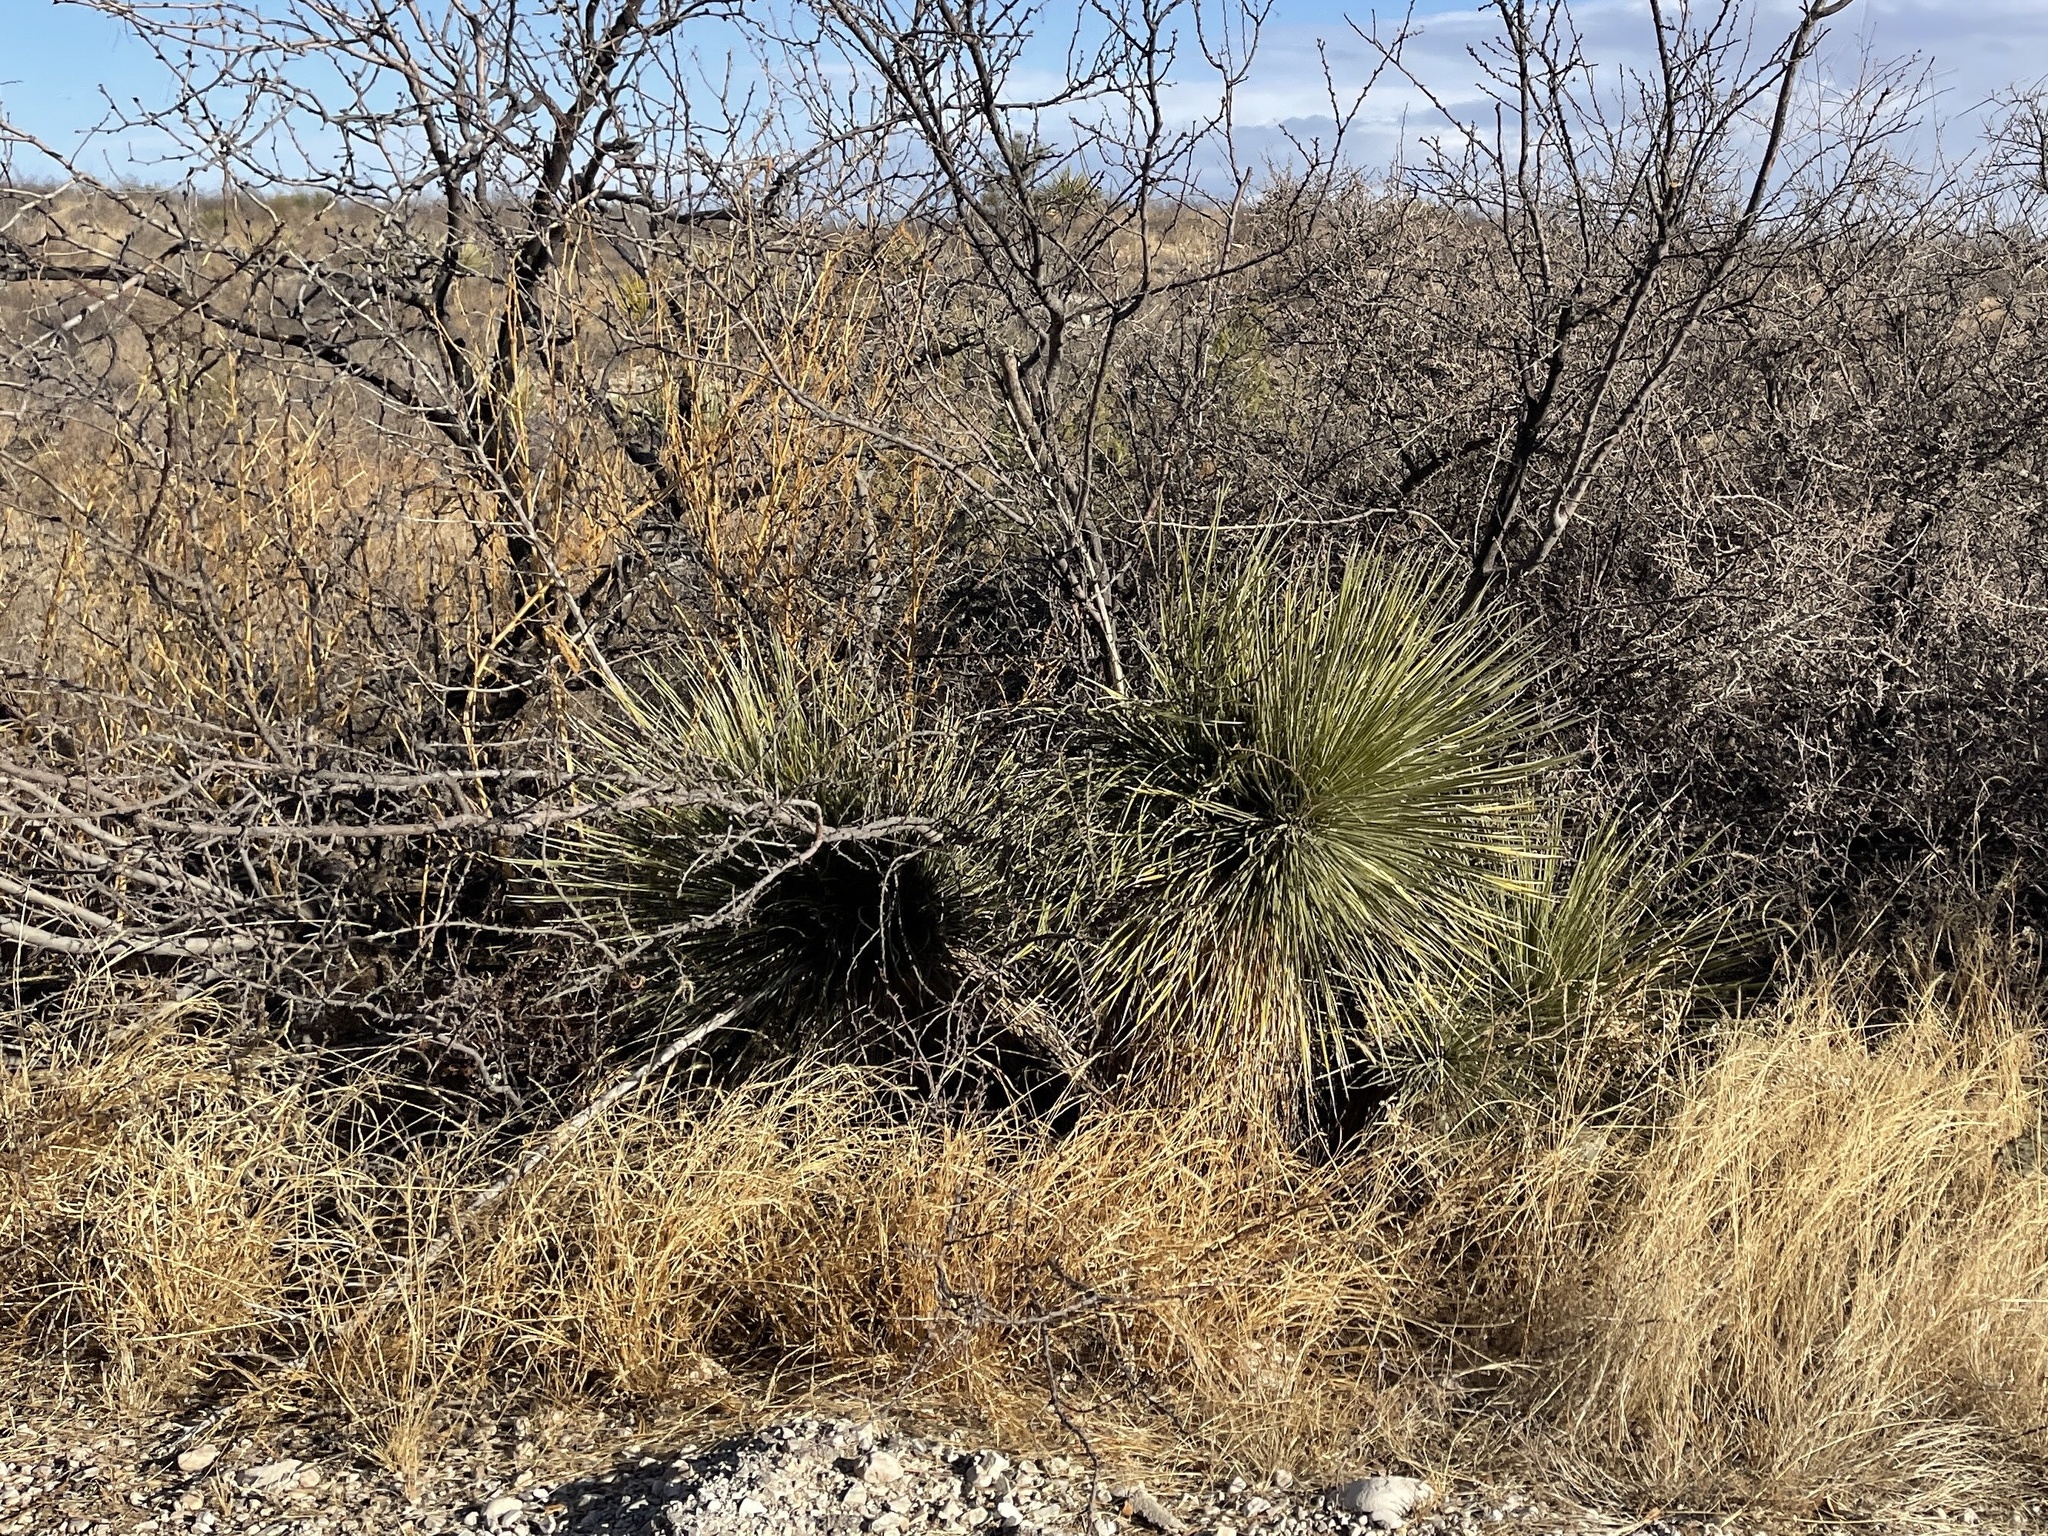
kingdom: Plantae
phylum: Tracheophyta
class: Liliopsida
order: Asparagales
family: Asparagaceae
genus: Yucca
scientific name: Yucca elata
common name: Palmella
